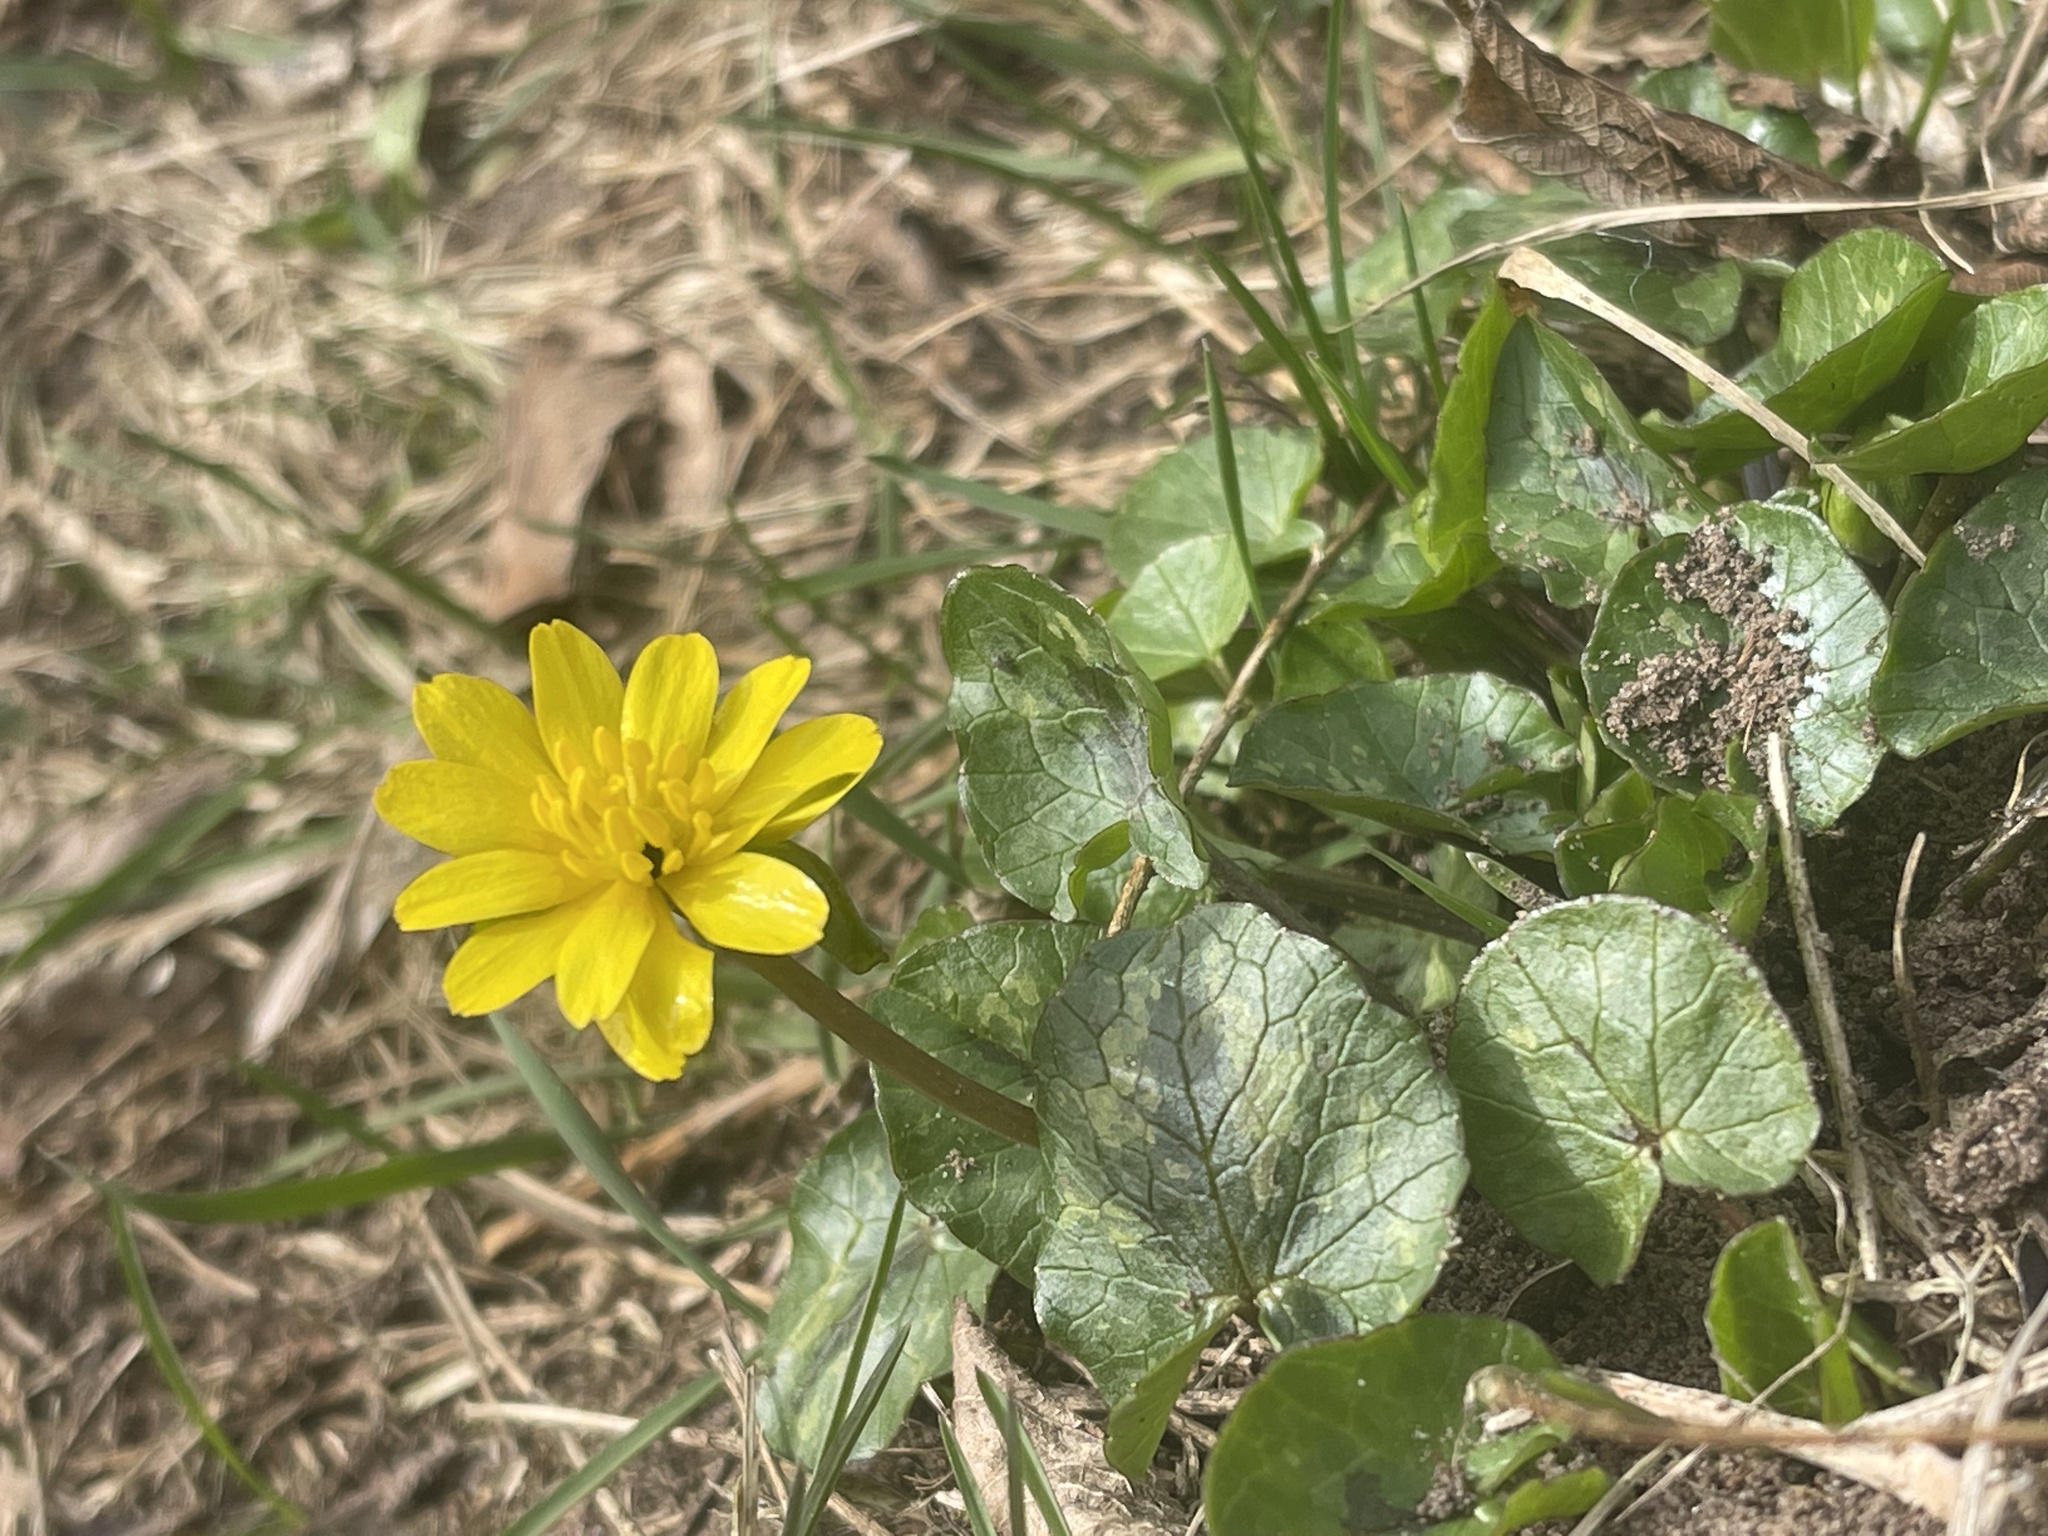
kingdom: Plantae
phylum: Tracheophyta
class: Magnoliopsida
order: Ranunculales
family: Ranunculaceae
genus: Ficaria
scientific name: Ficaria verna
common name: Lesser celandine
